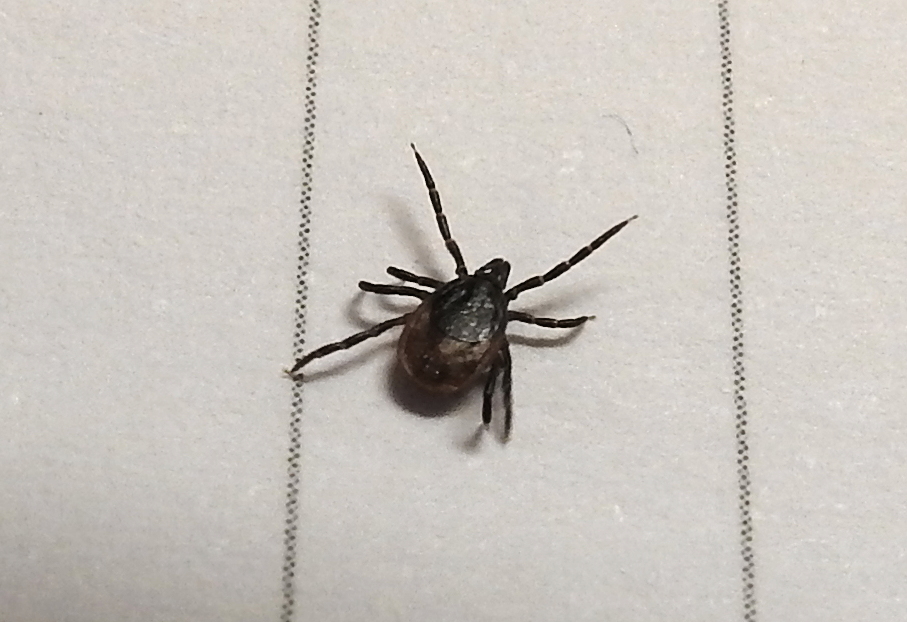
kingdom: Animalia
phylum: Arthropoda
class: Arachnida
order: Ixodida
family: Ixodidae
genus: Ixodes
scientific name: Ixodes ricinus
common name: Castor bean tick
